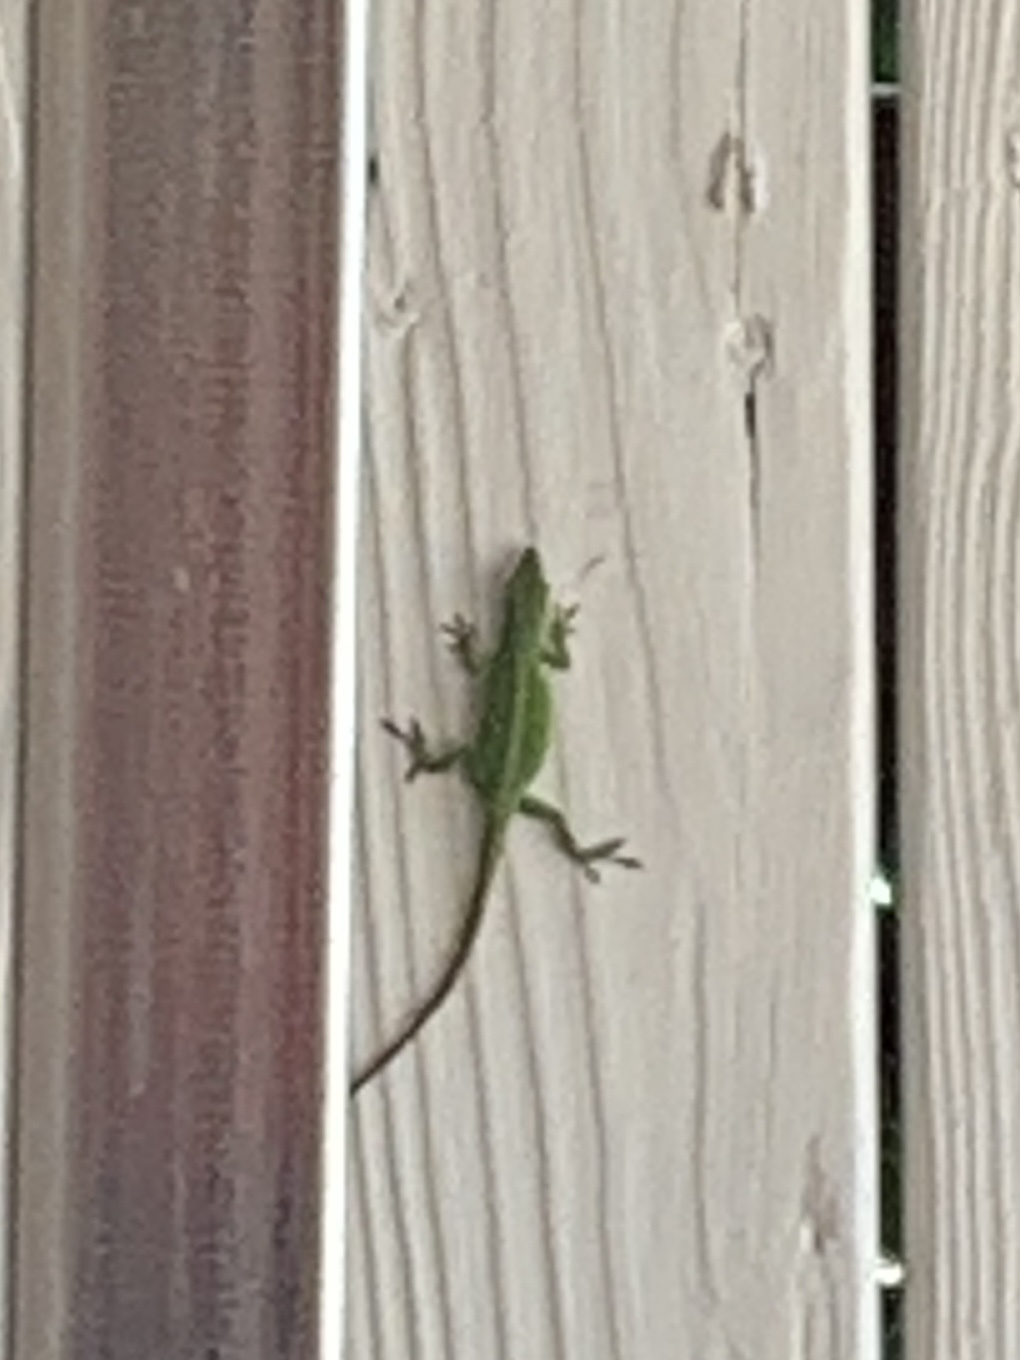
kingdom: Animalia
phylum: Chordata
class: Squamata
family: Dactyloidae
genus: Anolis
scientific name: Anolis carolinensis
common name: Green anole
